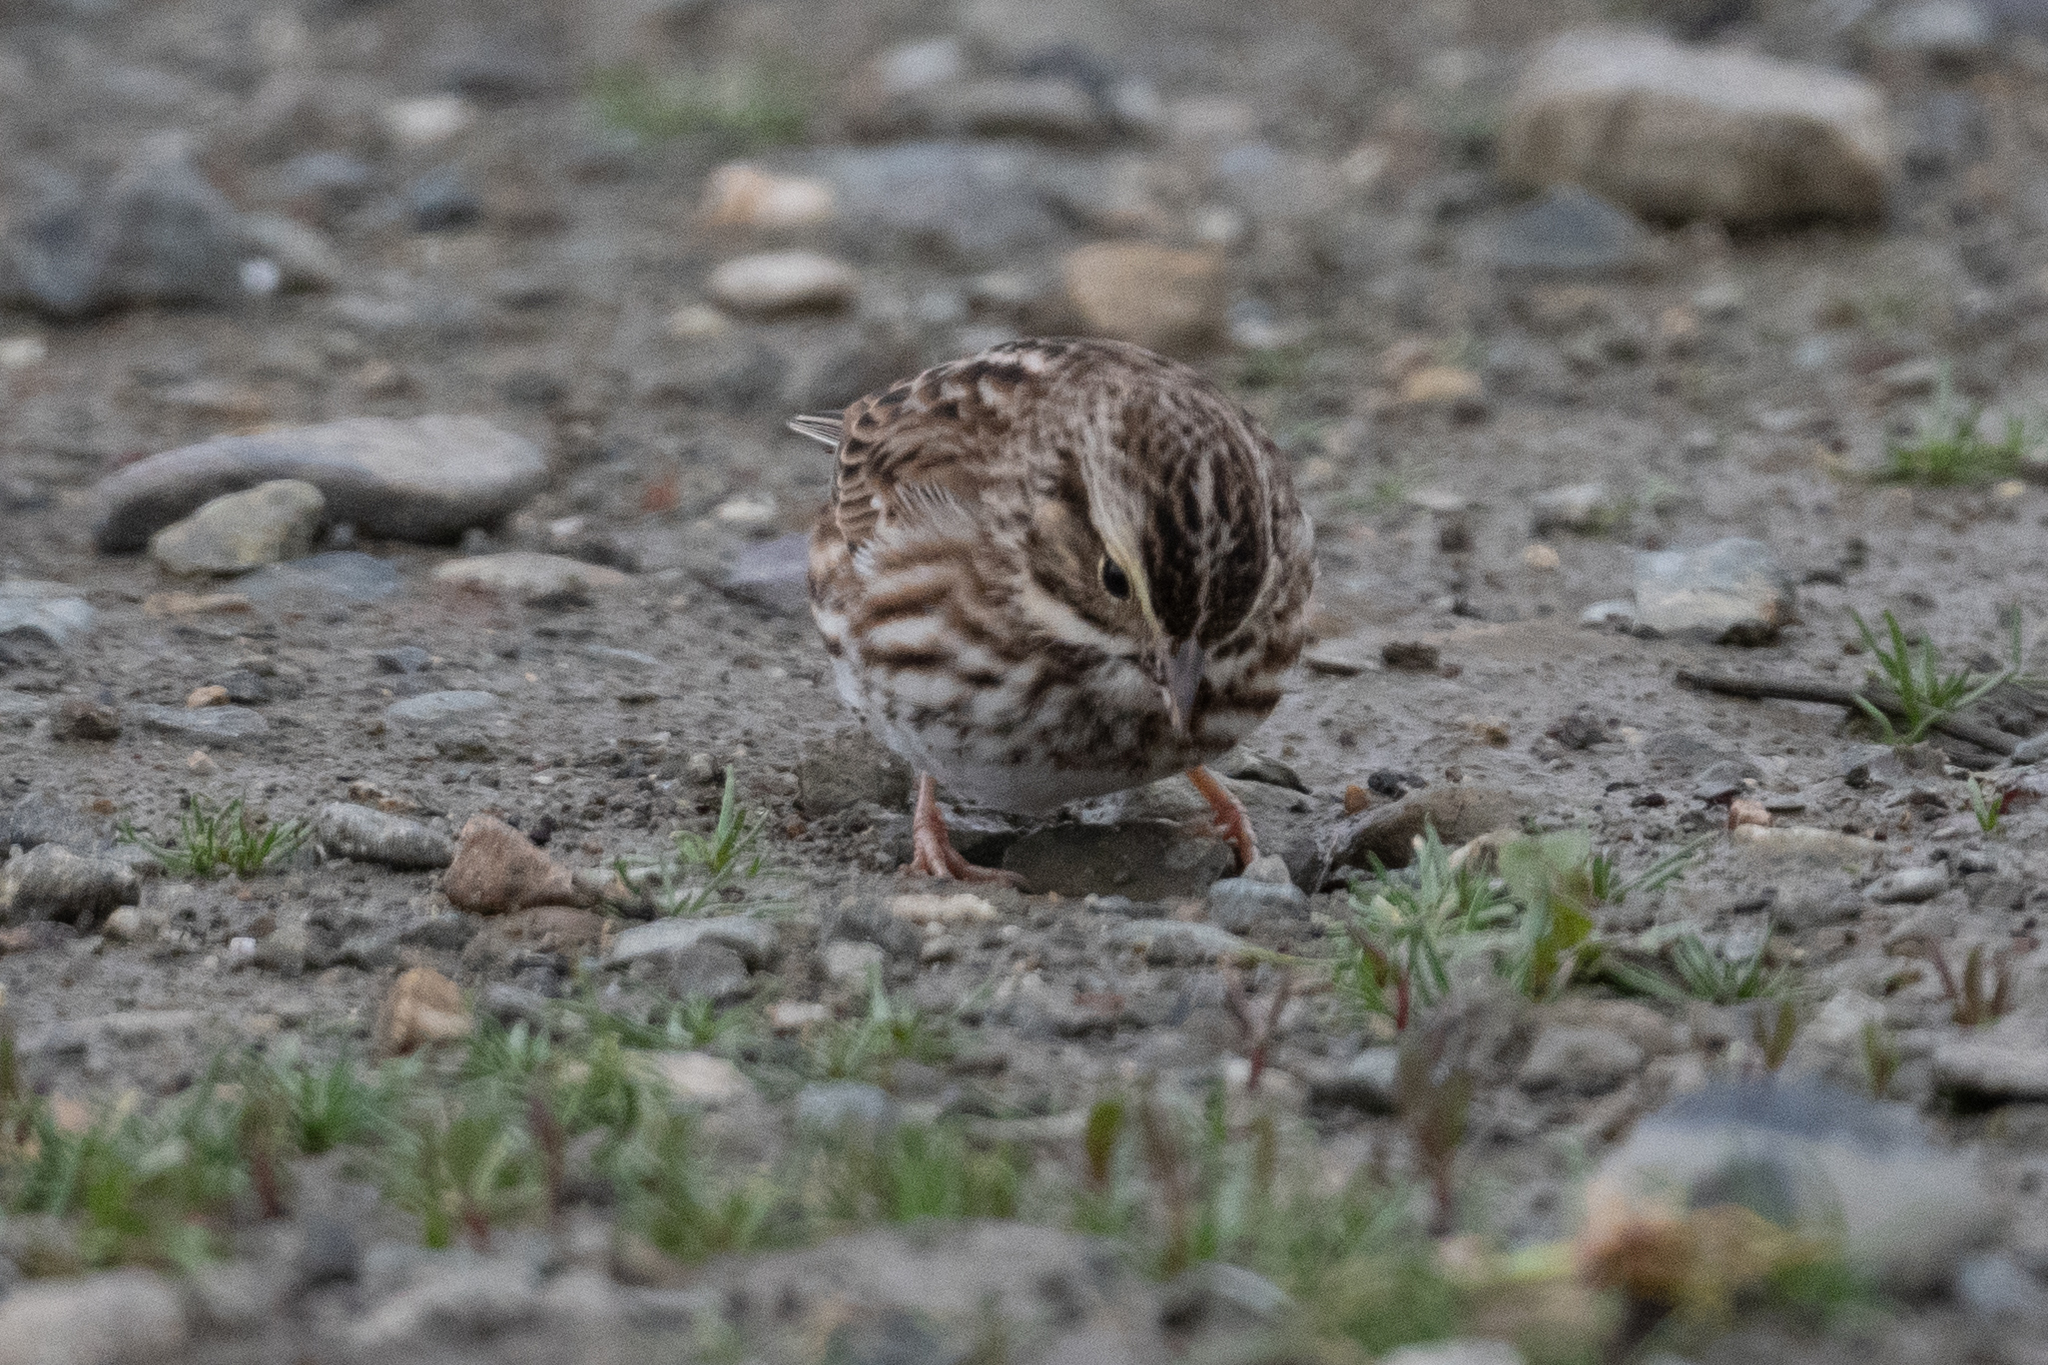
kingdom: Animalia
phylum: Chordata
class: Aves
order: Passeriformes
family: Passerellidae
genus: Passerculus
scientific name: Passerculus sandwichensis
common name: Savannah sparrow
